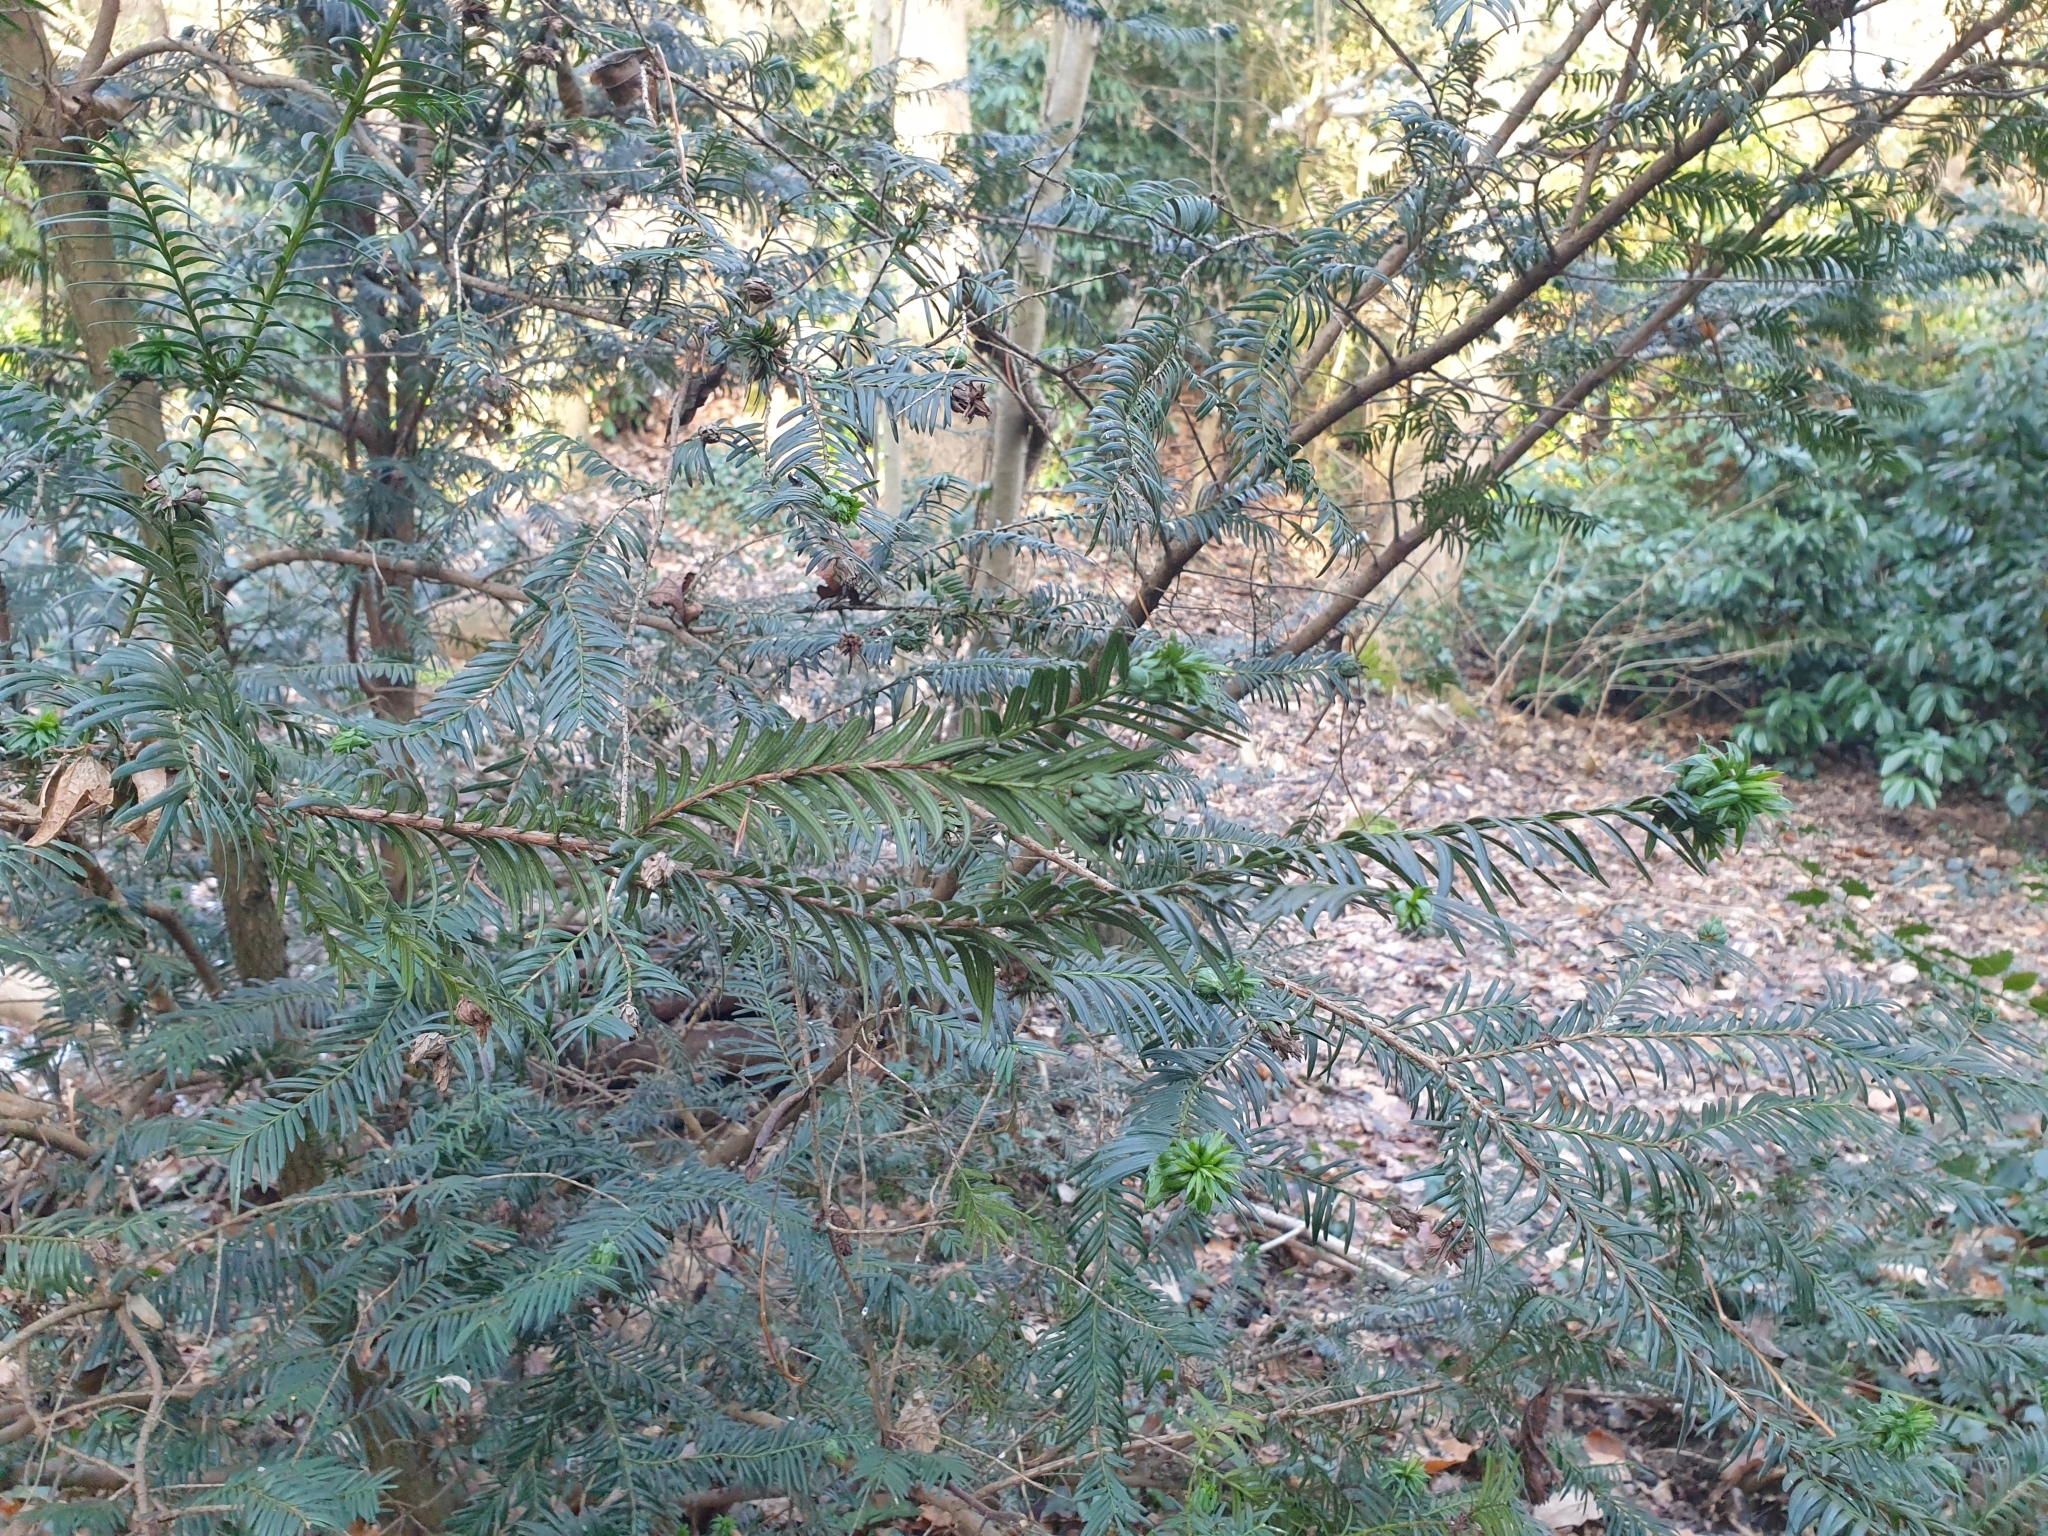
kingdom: Animalia
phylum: Arthropoda
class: Insecta
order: Diptera
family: Cecidomyiidae
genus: Taxomyia
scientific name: Taxomyia taxi
